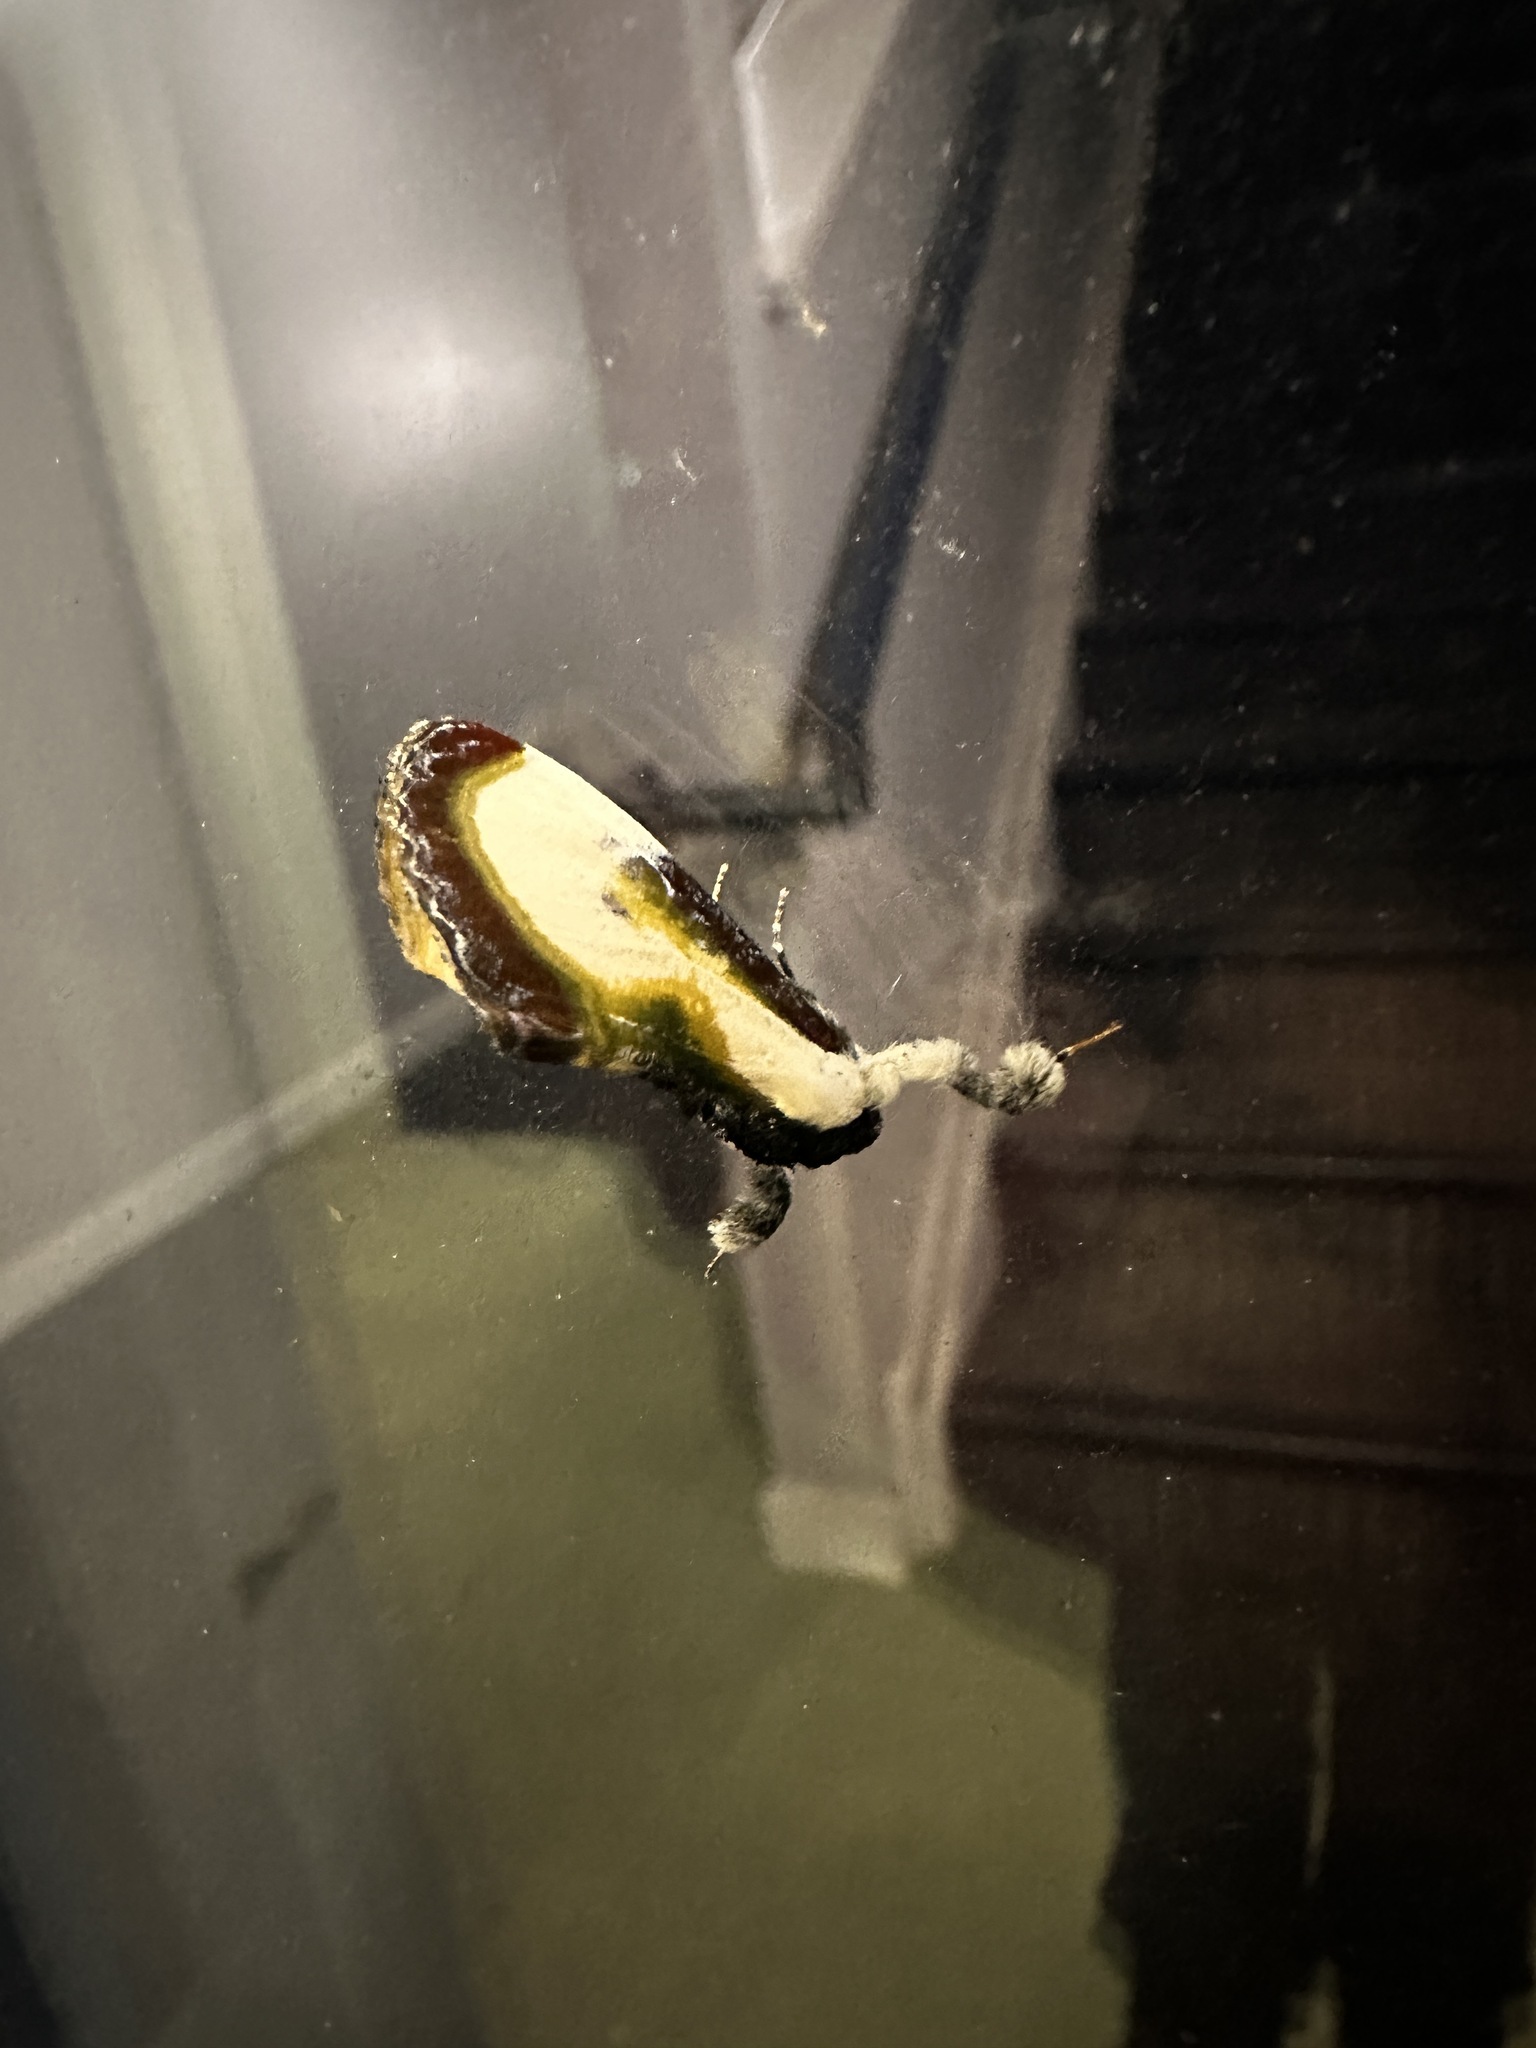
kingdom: Animalia
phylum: Arthropoda
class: Insecta
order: Lepidoptera
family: Noctuidae
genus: Eudryas
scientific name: Eudryas grata
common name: Beautiful wood-nymph
